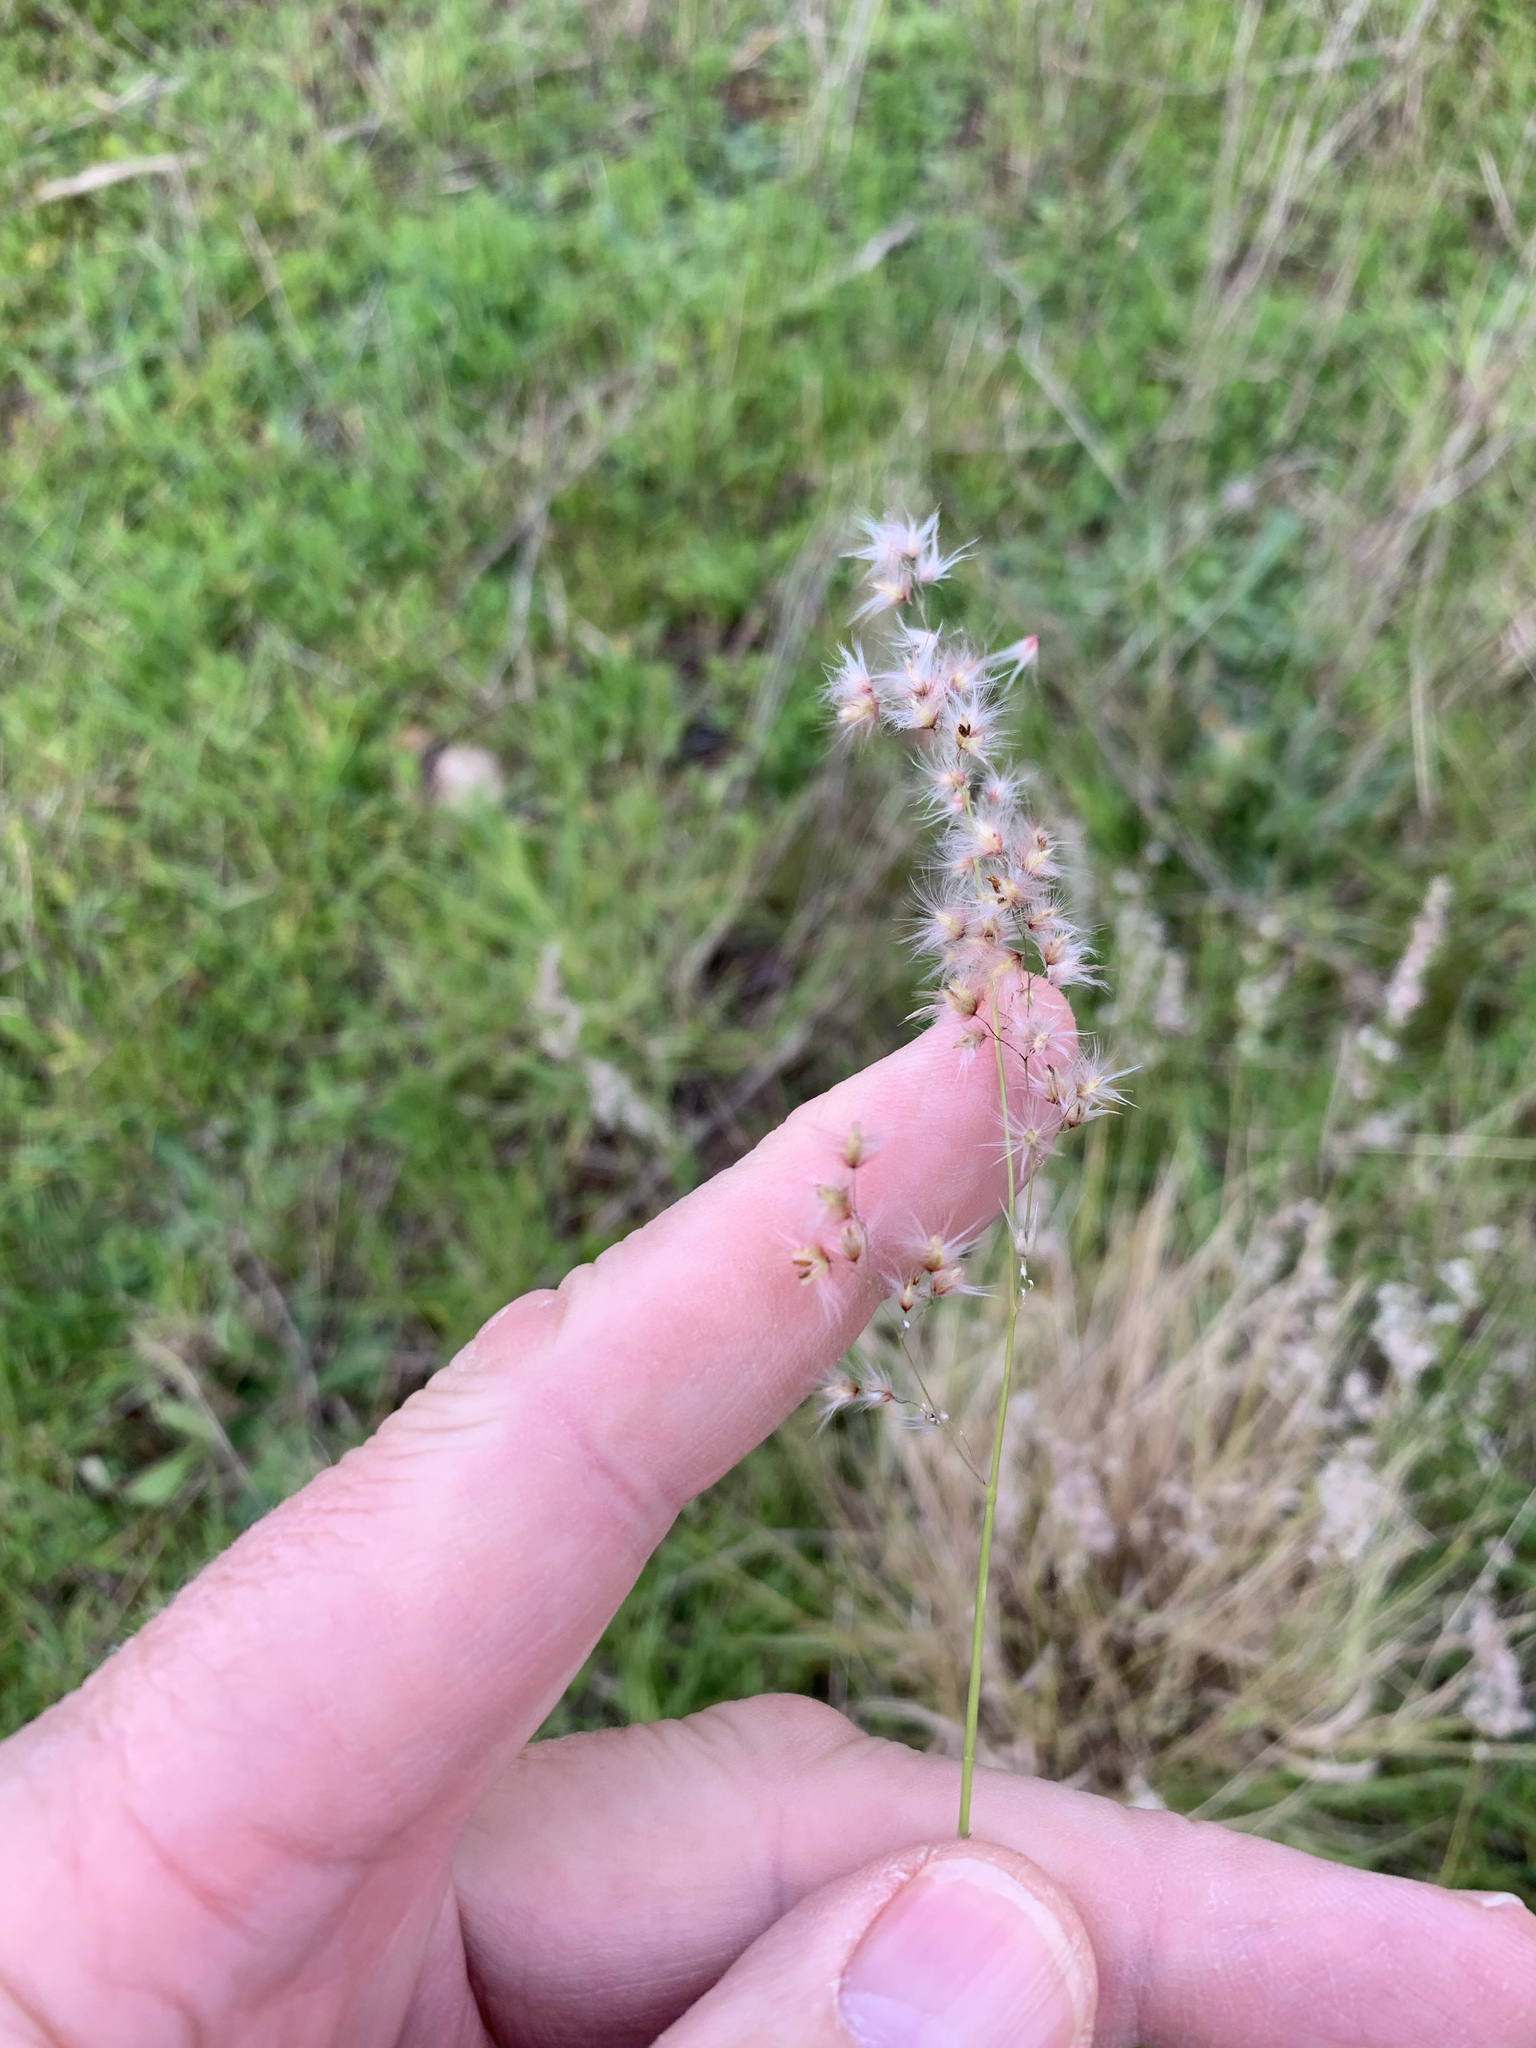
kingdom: Plantae
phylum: Tracheophyta
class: Liliopsida
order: Poales
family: Poaceae
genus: Melinis
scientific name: Melinis repens
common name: Rose natal grass
